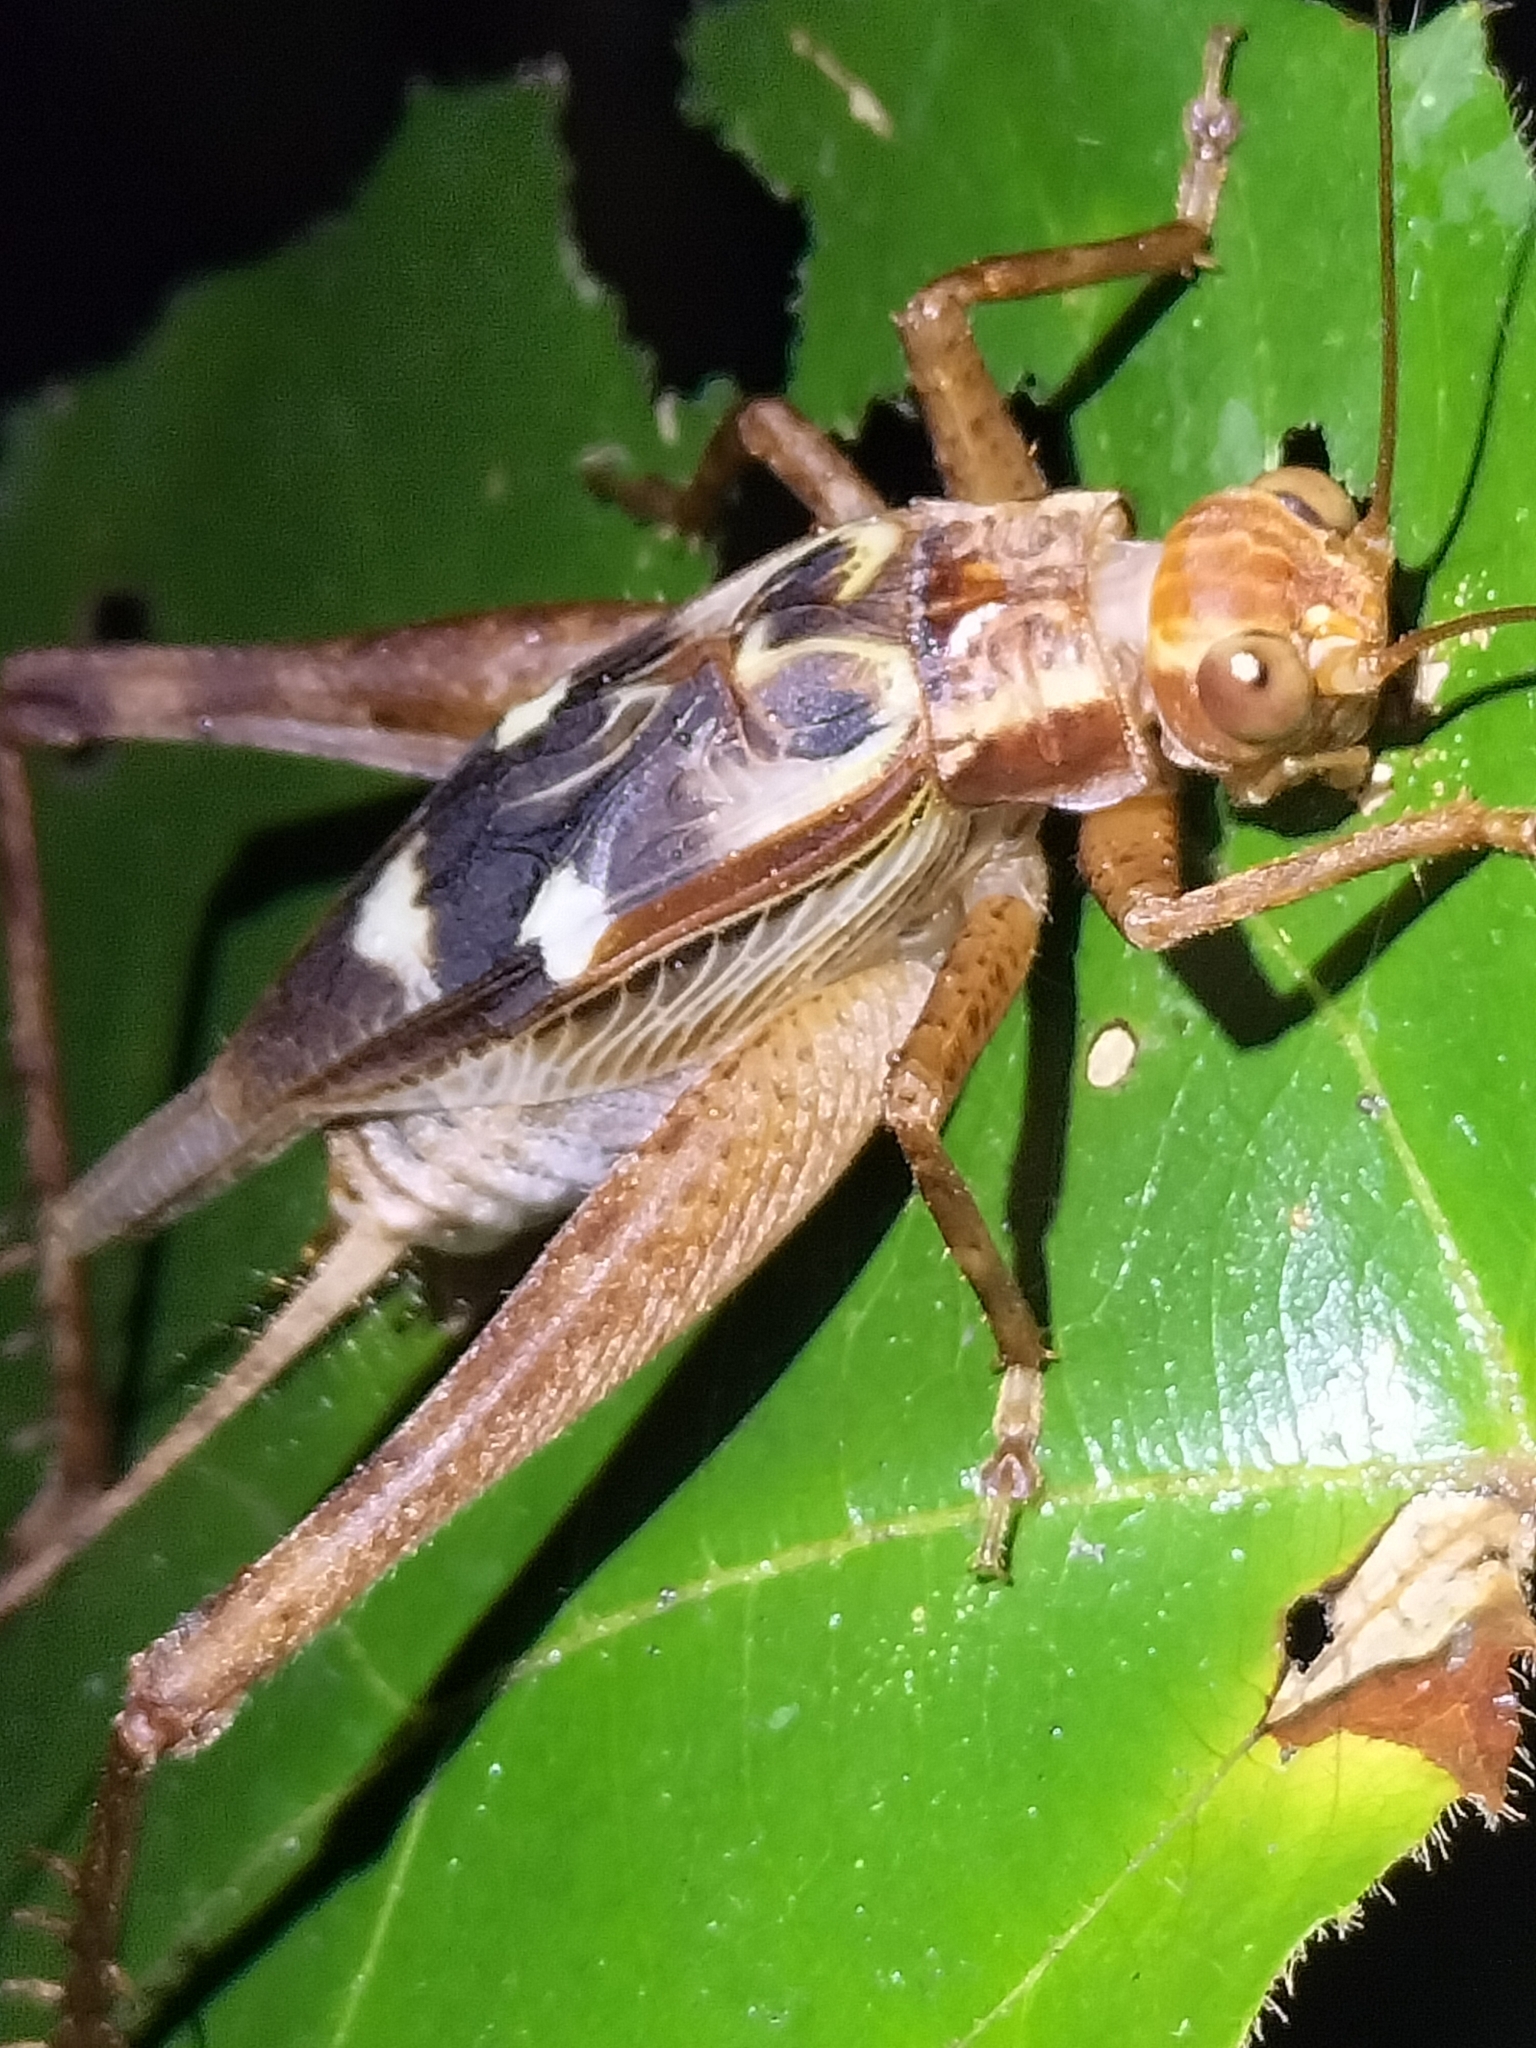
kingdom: Animalia
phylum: Arthropoda
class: Insecta
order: Orthoptera
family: Gryllidae
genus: Cardiodactylus
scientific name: Cardiodactylus novaeguineae
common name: Sad cricket
